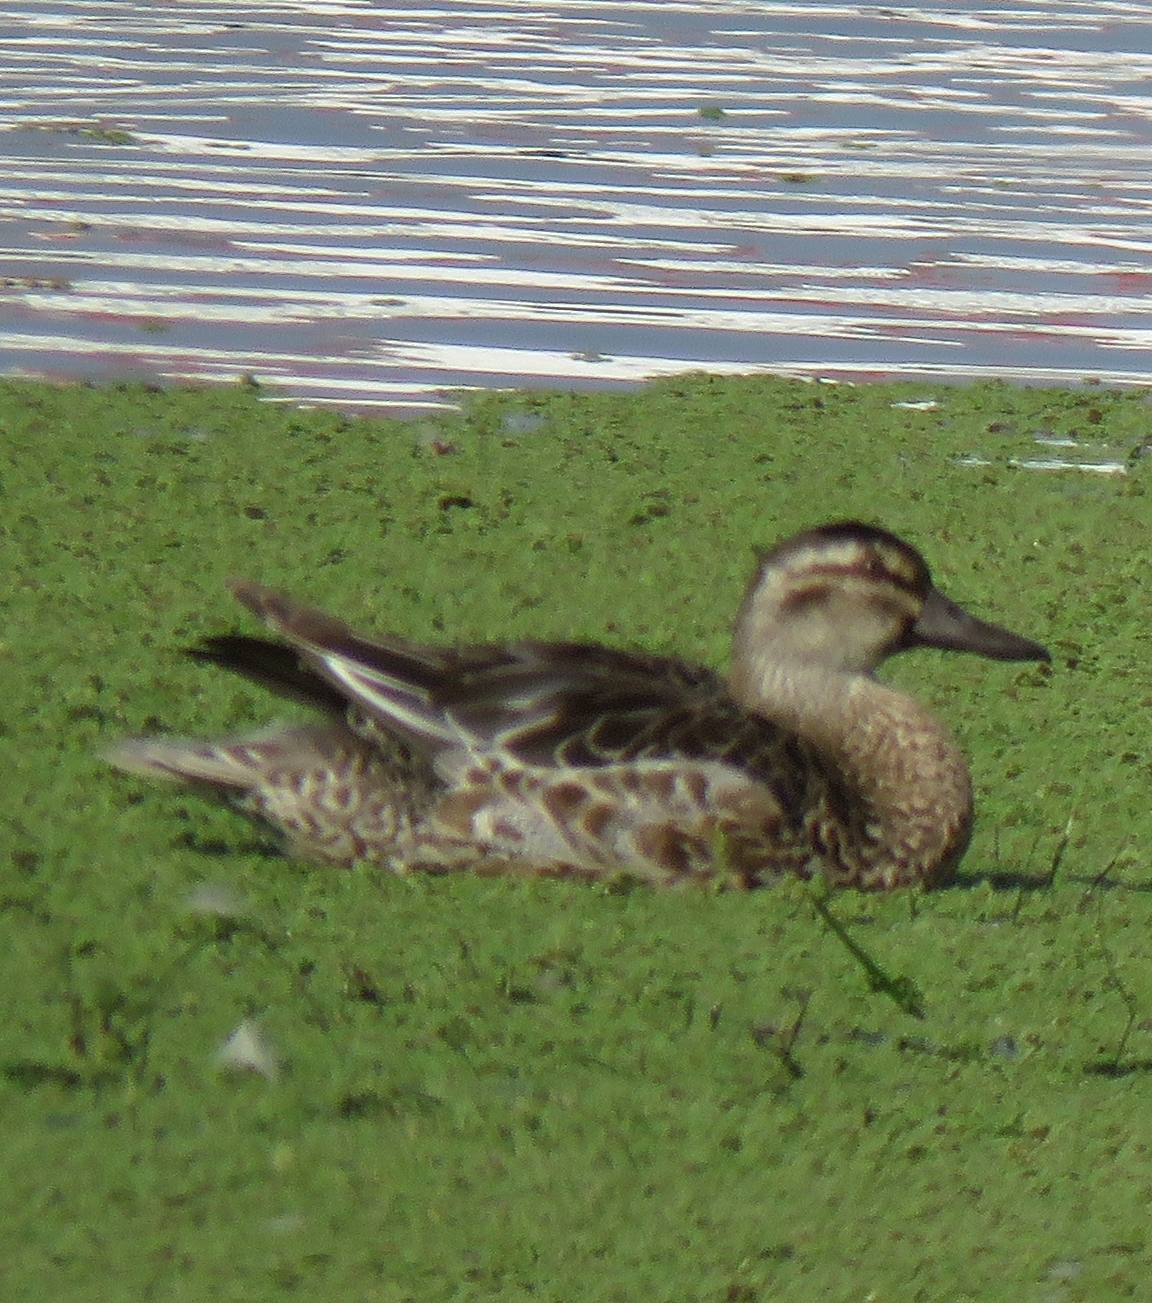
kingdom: Animalia
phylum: Chordata
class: Aves
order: Anseriformes
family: Anatidae
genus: Spatula
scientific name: Spatula querquedula
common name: Garganey
